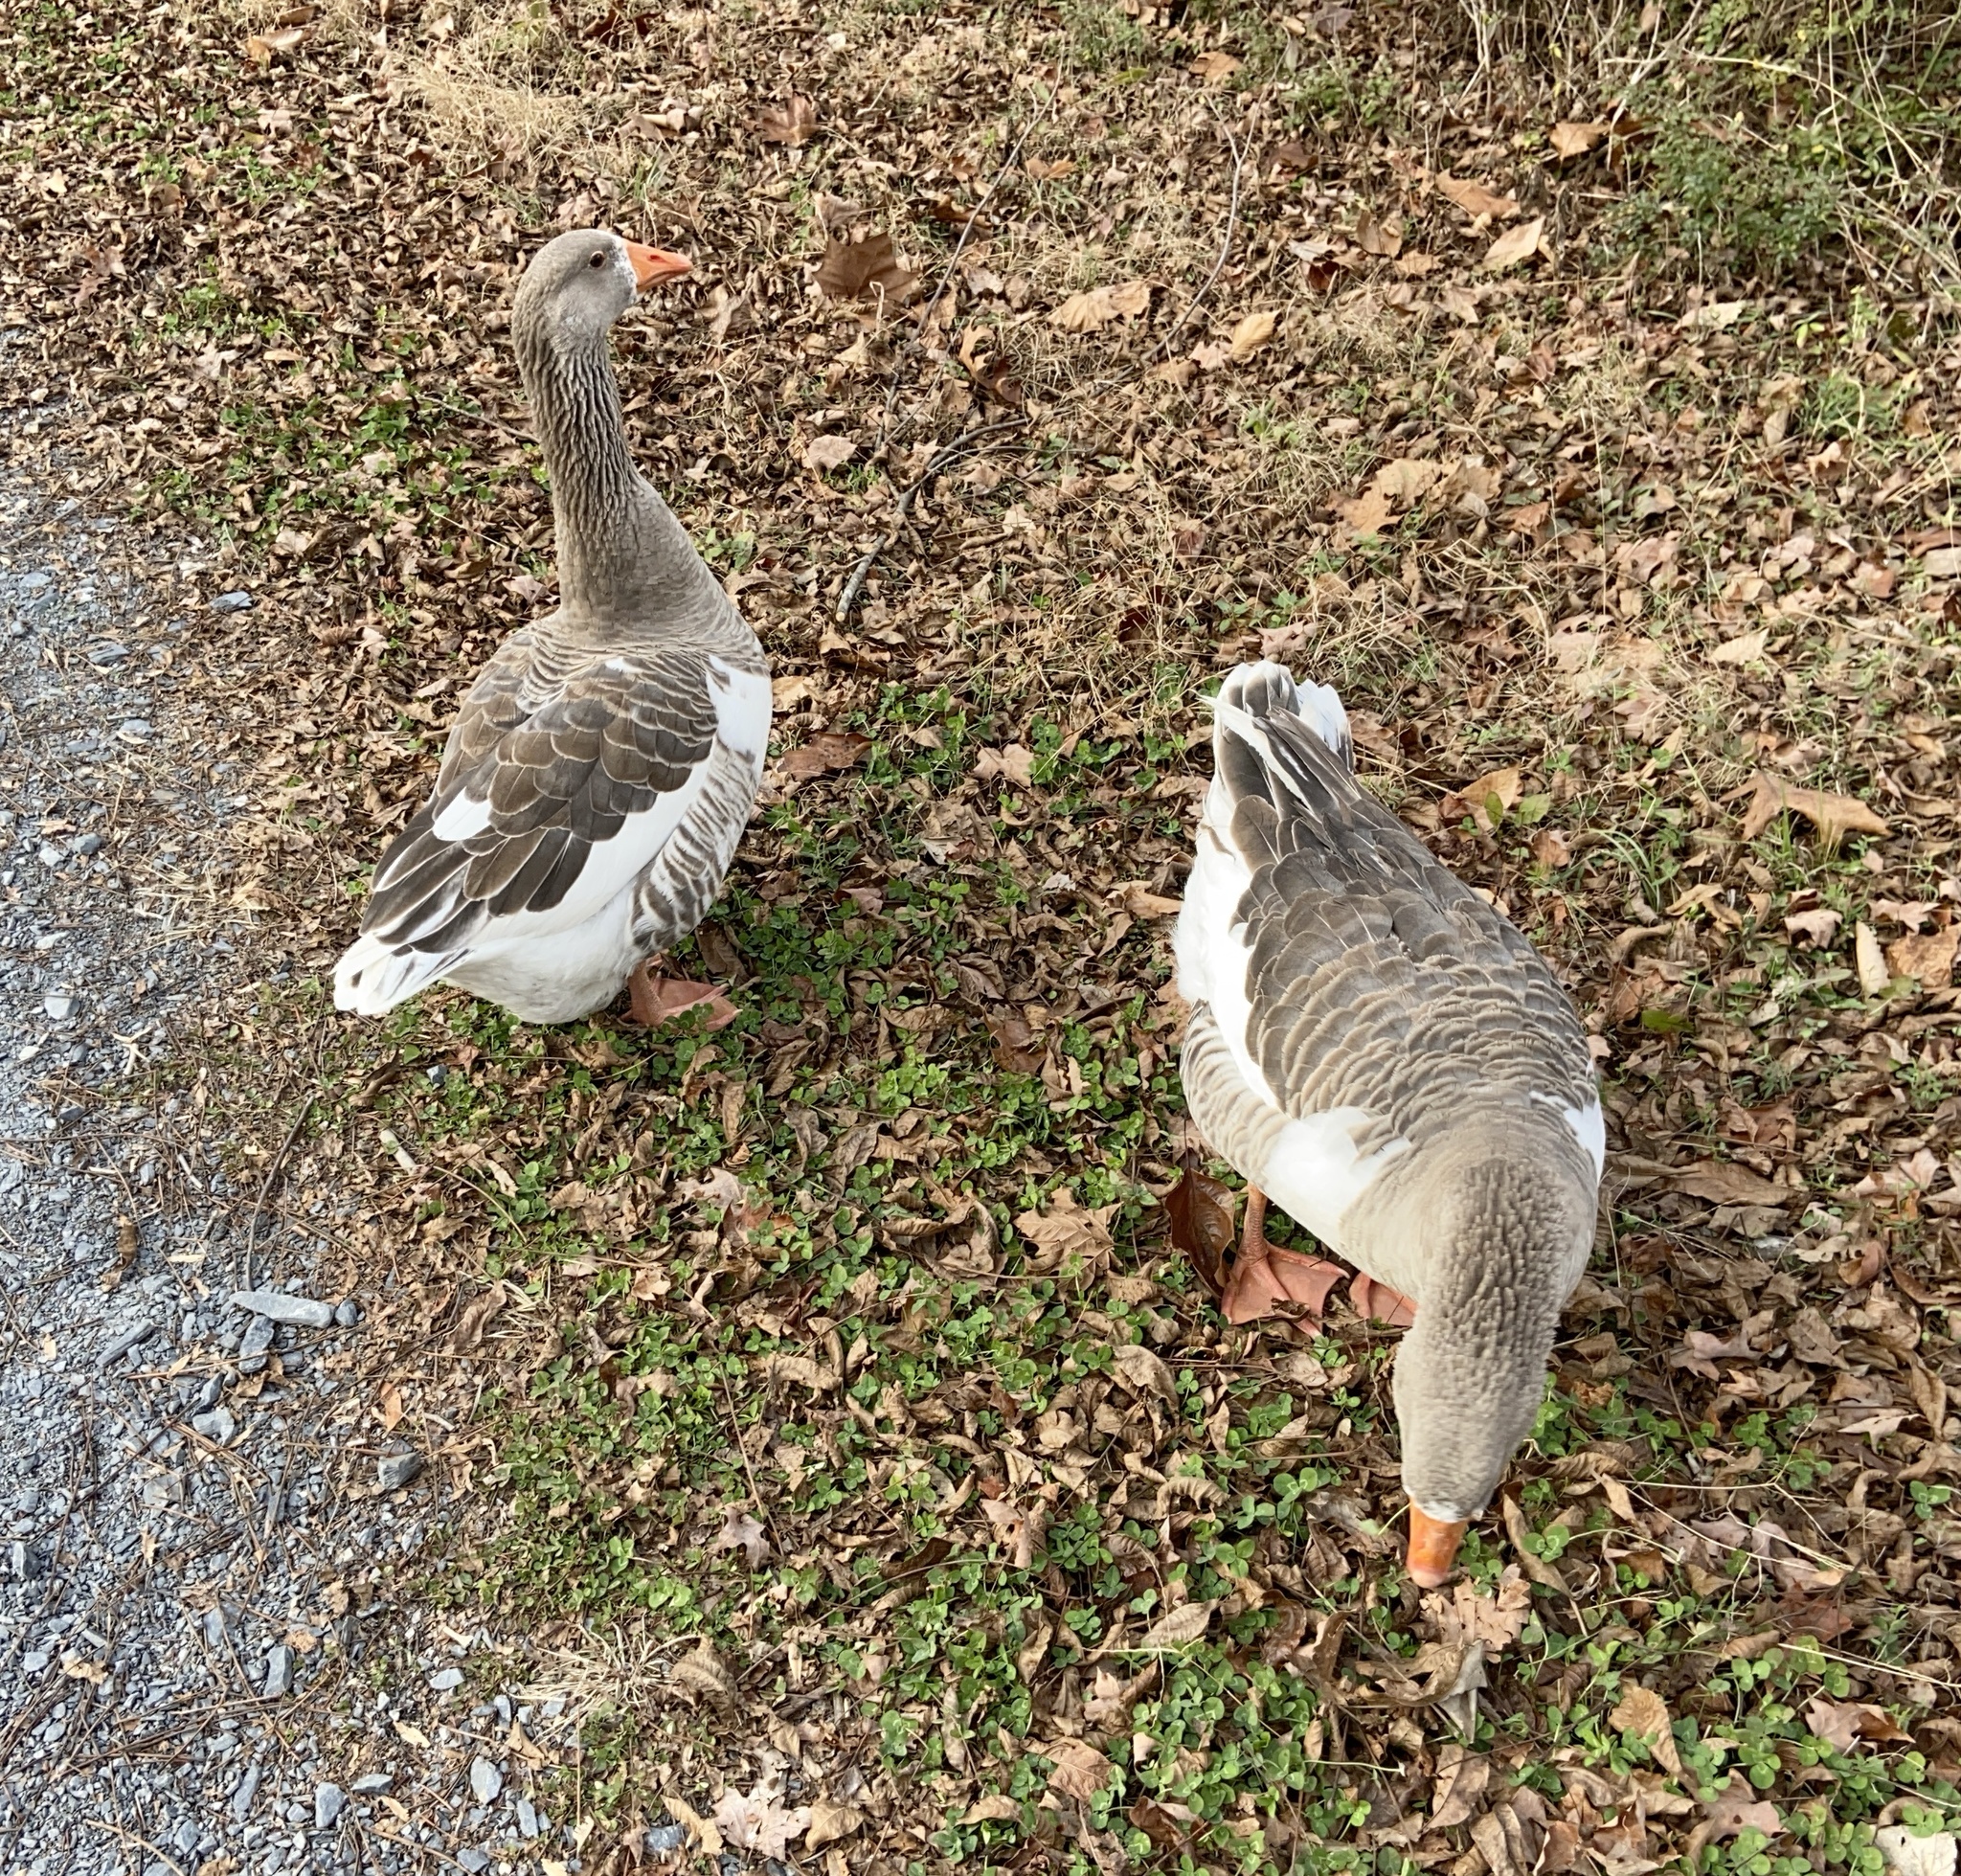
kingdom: Animalia
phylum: Chordata
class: Aves
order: Anseriformes
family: Anatidae
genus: Anser
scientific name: Anser
